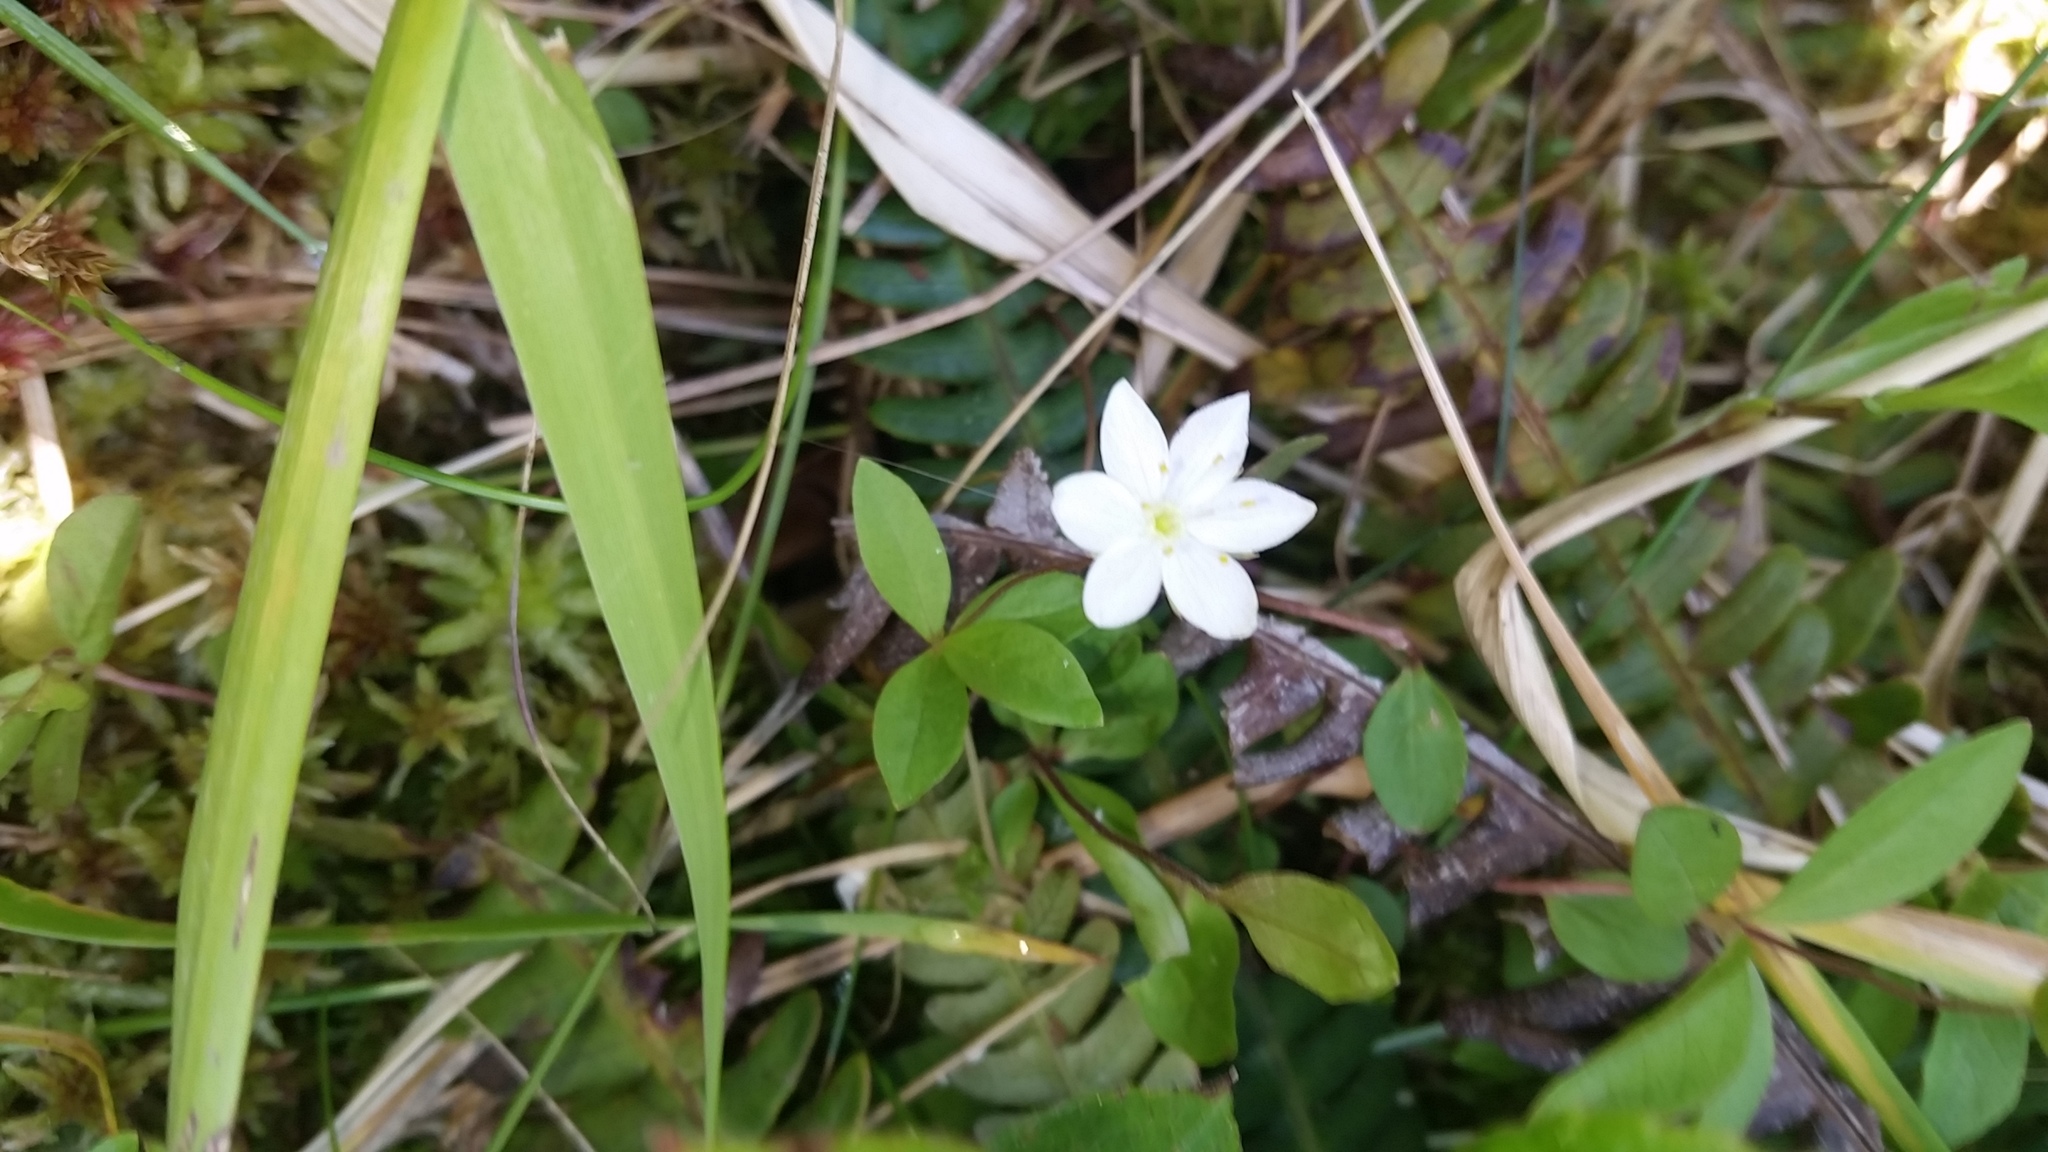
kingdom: Plantae
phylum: Tracheophyta
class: Magnoliopsida
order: Ericales
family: Primulaceae
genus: Lysimachia
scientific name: Lysimachia latifolia
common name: Pacific starflower
